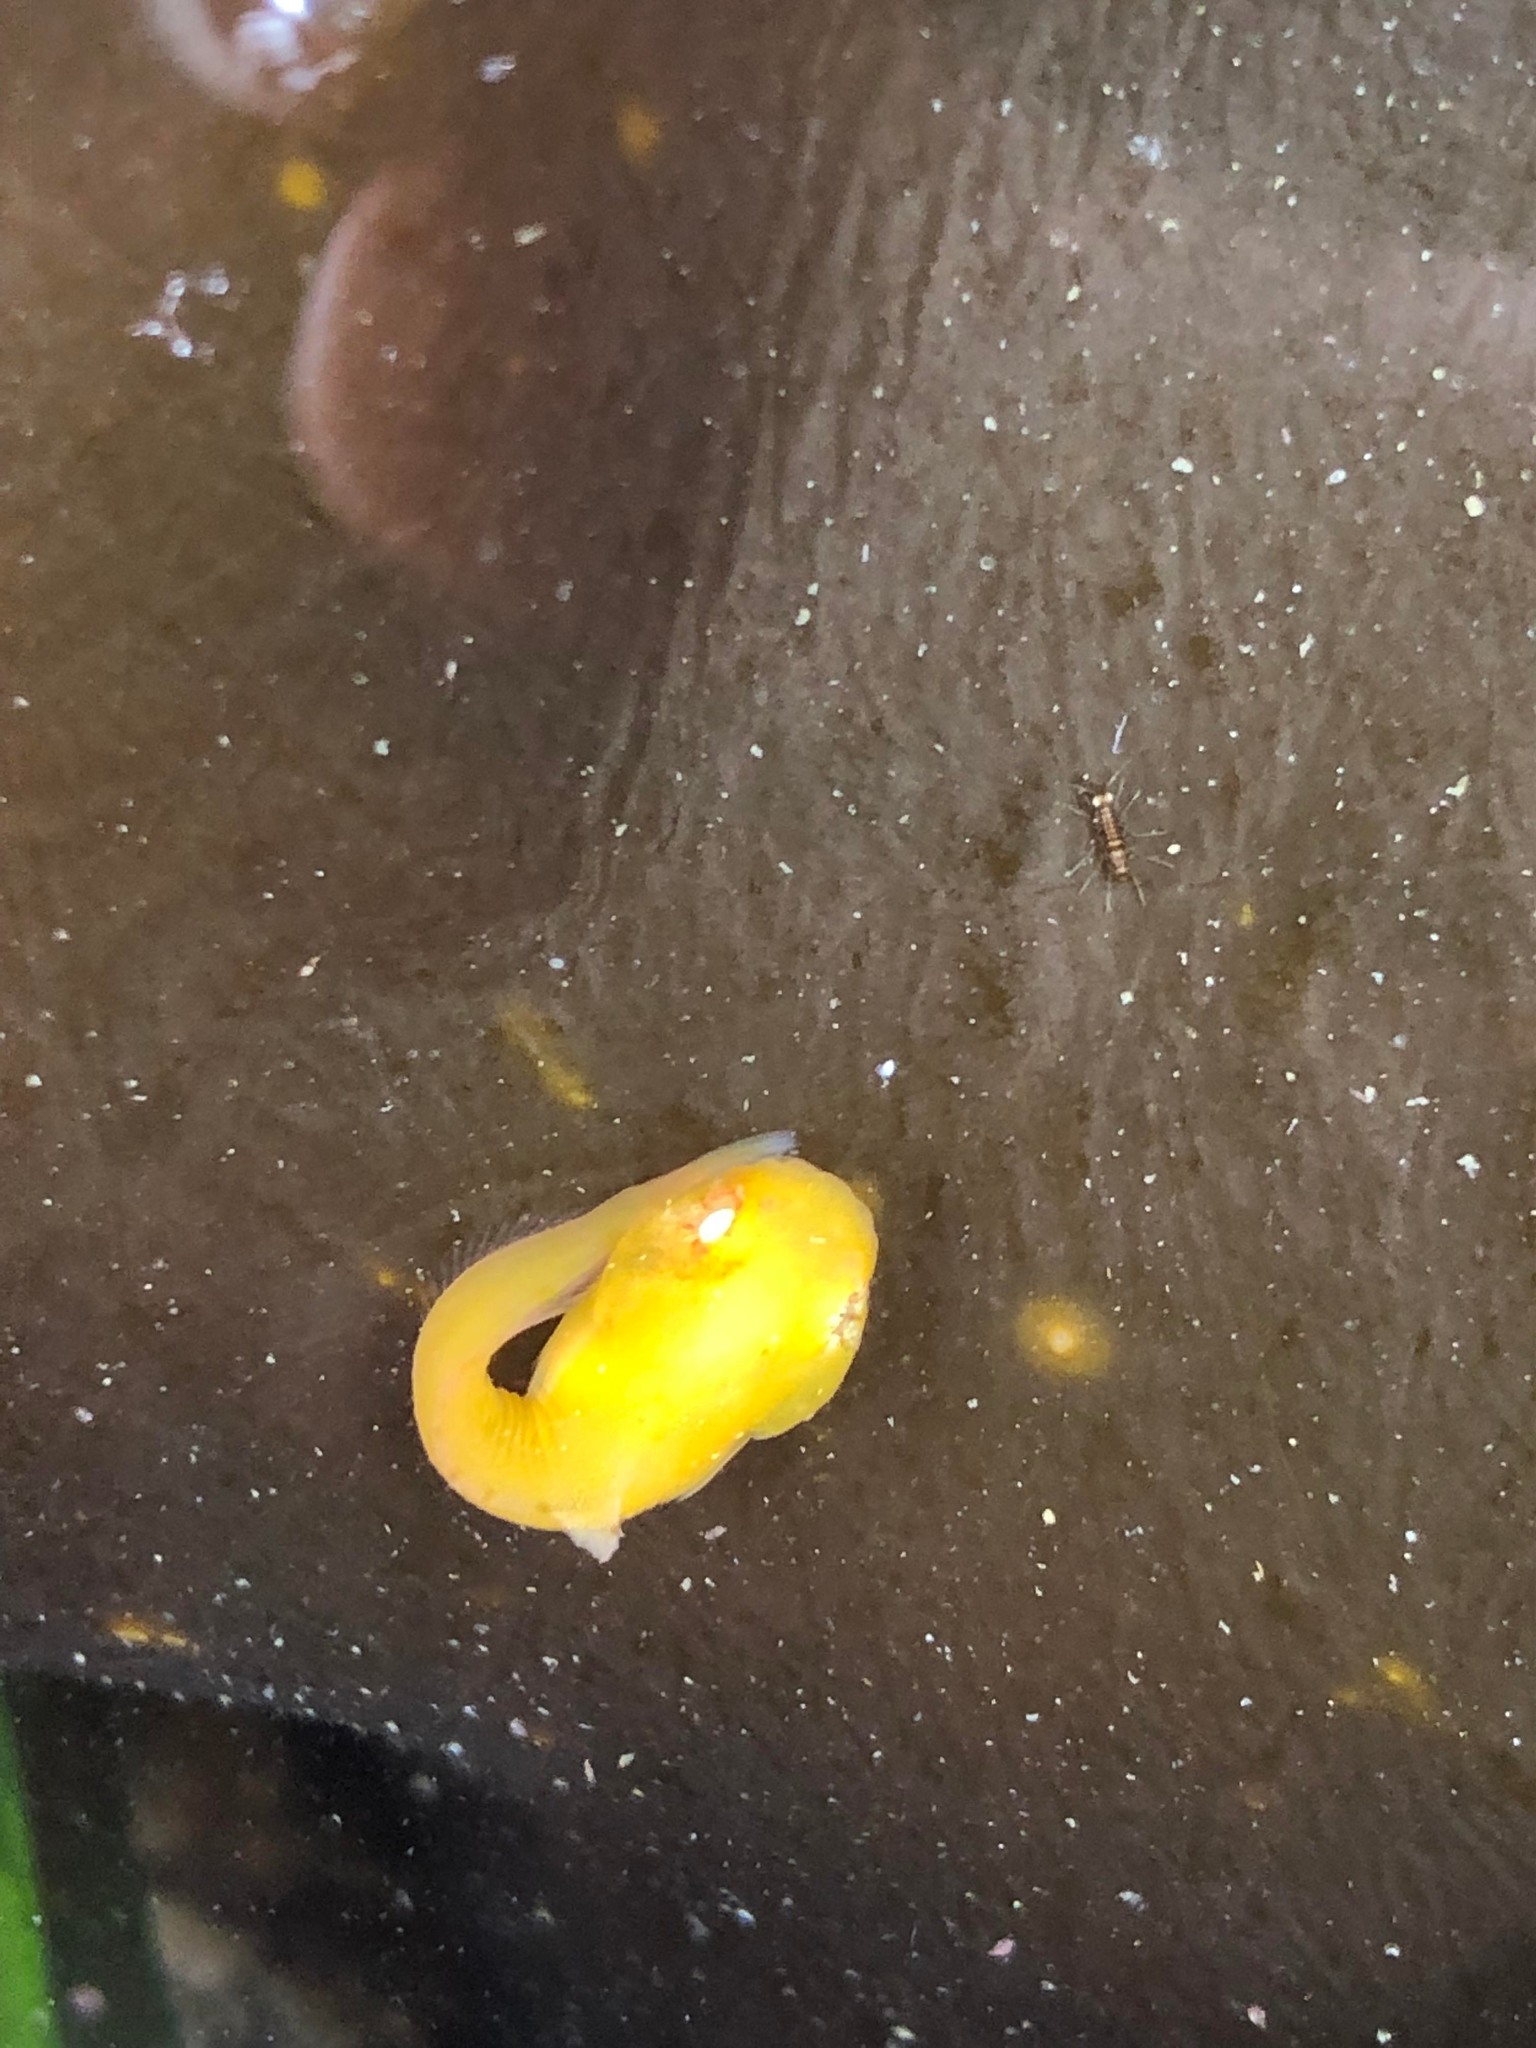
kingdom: Animalia
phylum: Chordata
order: Scorpaeniformes
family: Liparidae
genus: Liparis
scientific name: Liparis florae
